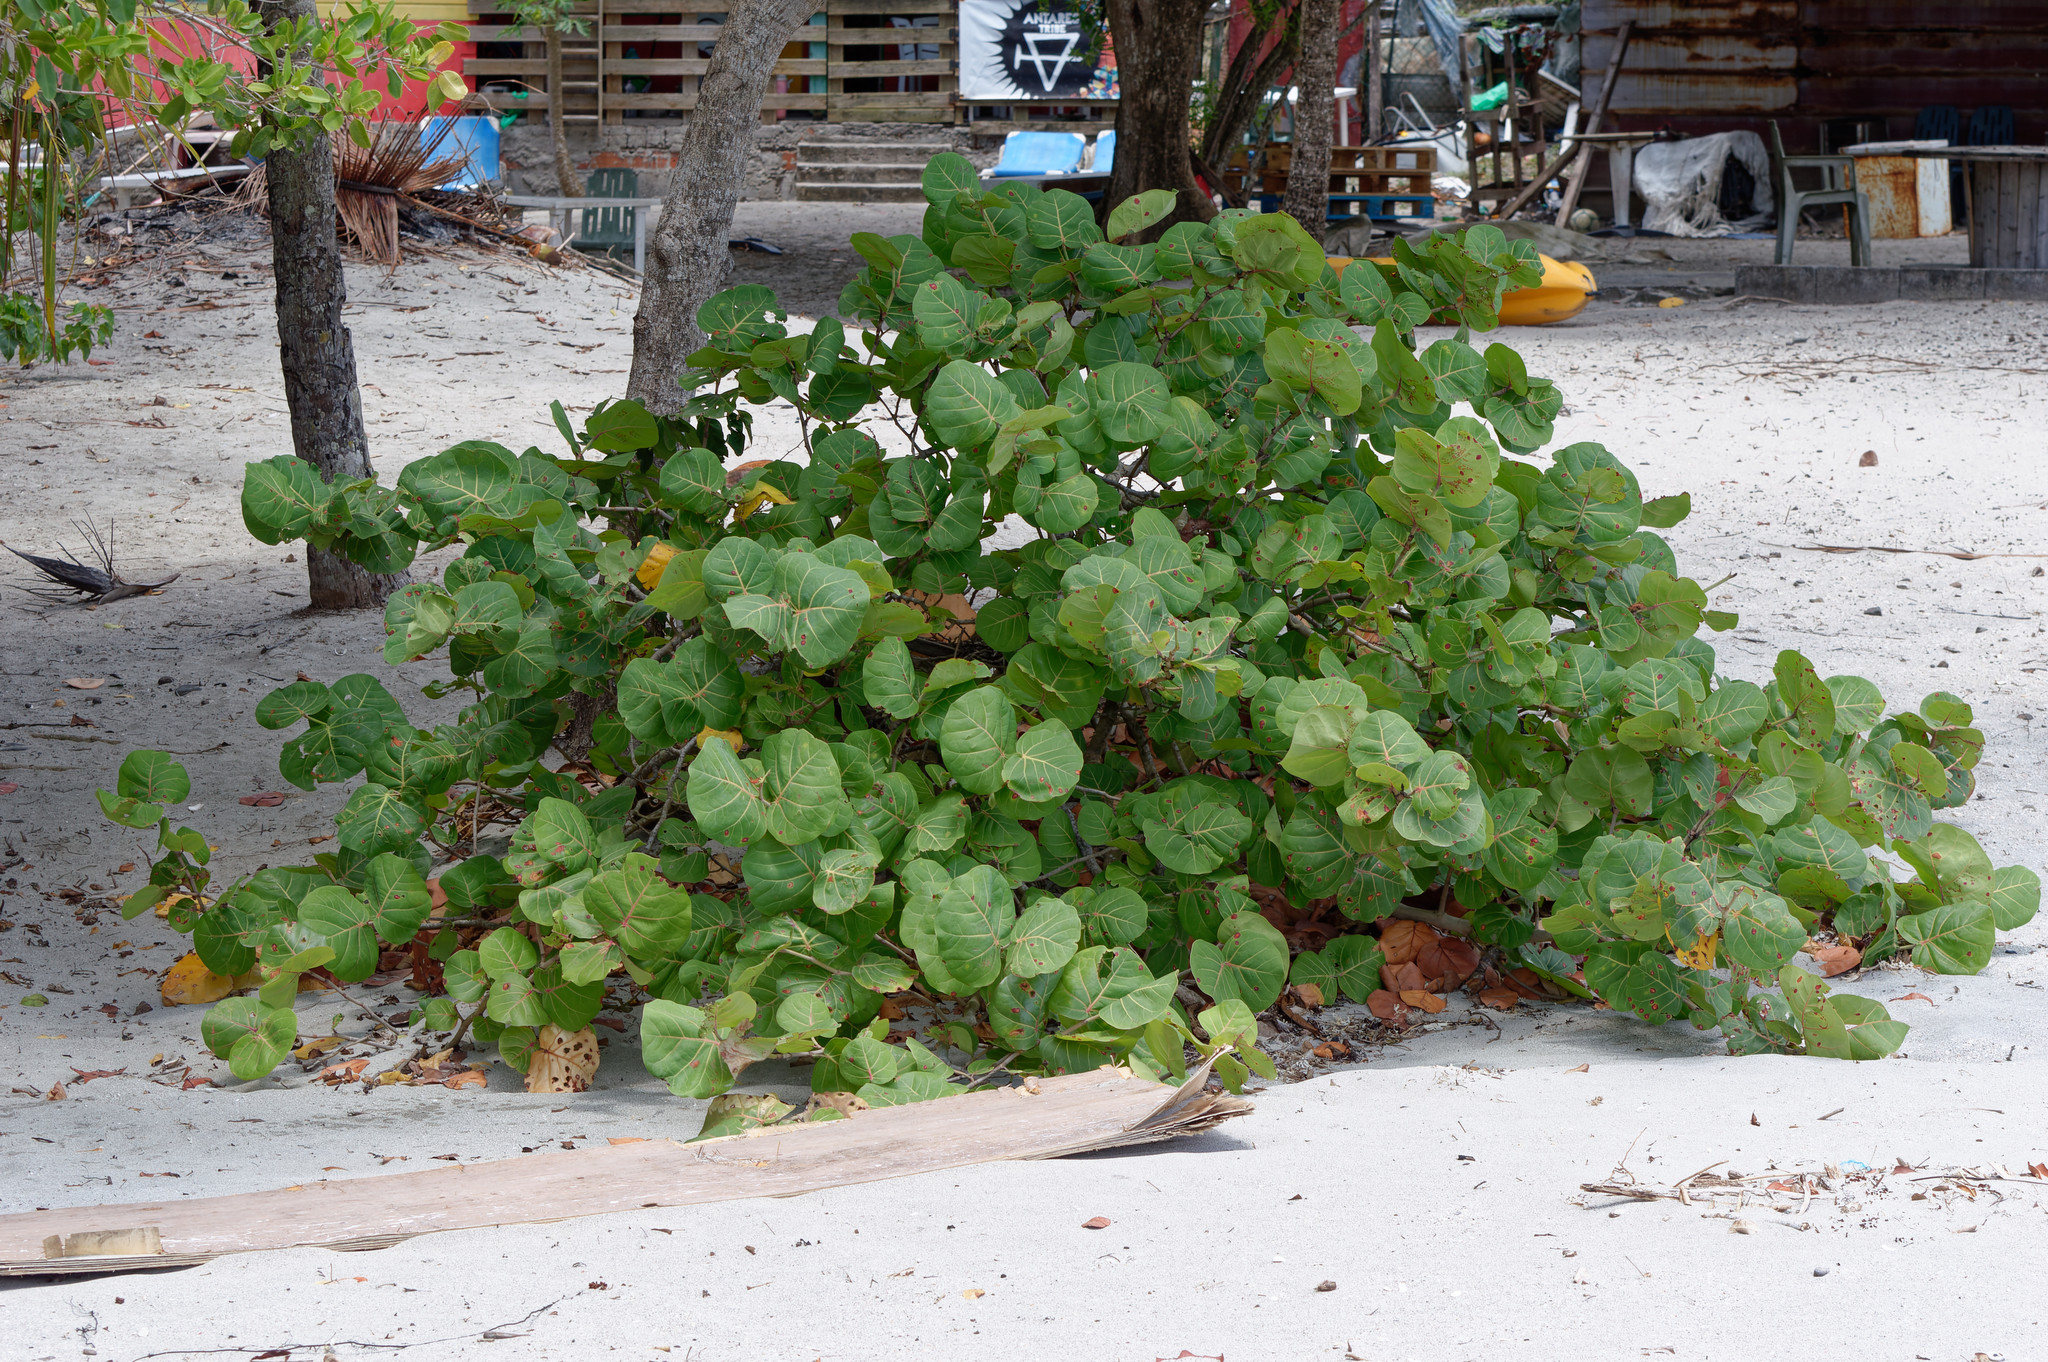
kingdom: Plantae
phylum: Tracheophyta
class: Magnoliopsida
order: Caryophyllales
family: Polygonaceae
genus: Coccoloba
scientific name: Coccoloba uvifera
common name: Seagrape
